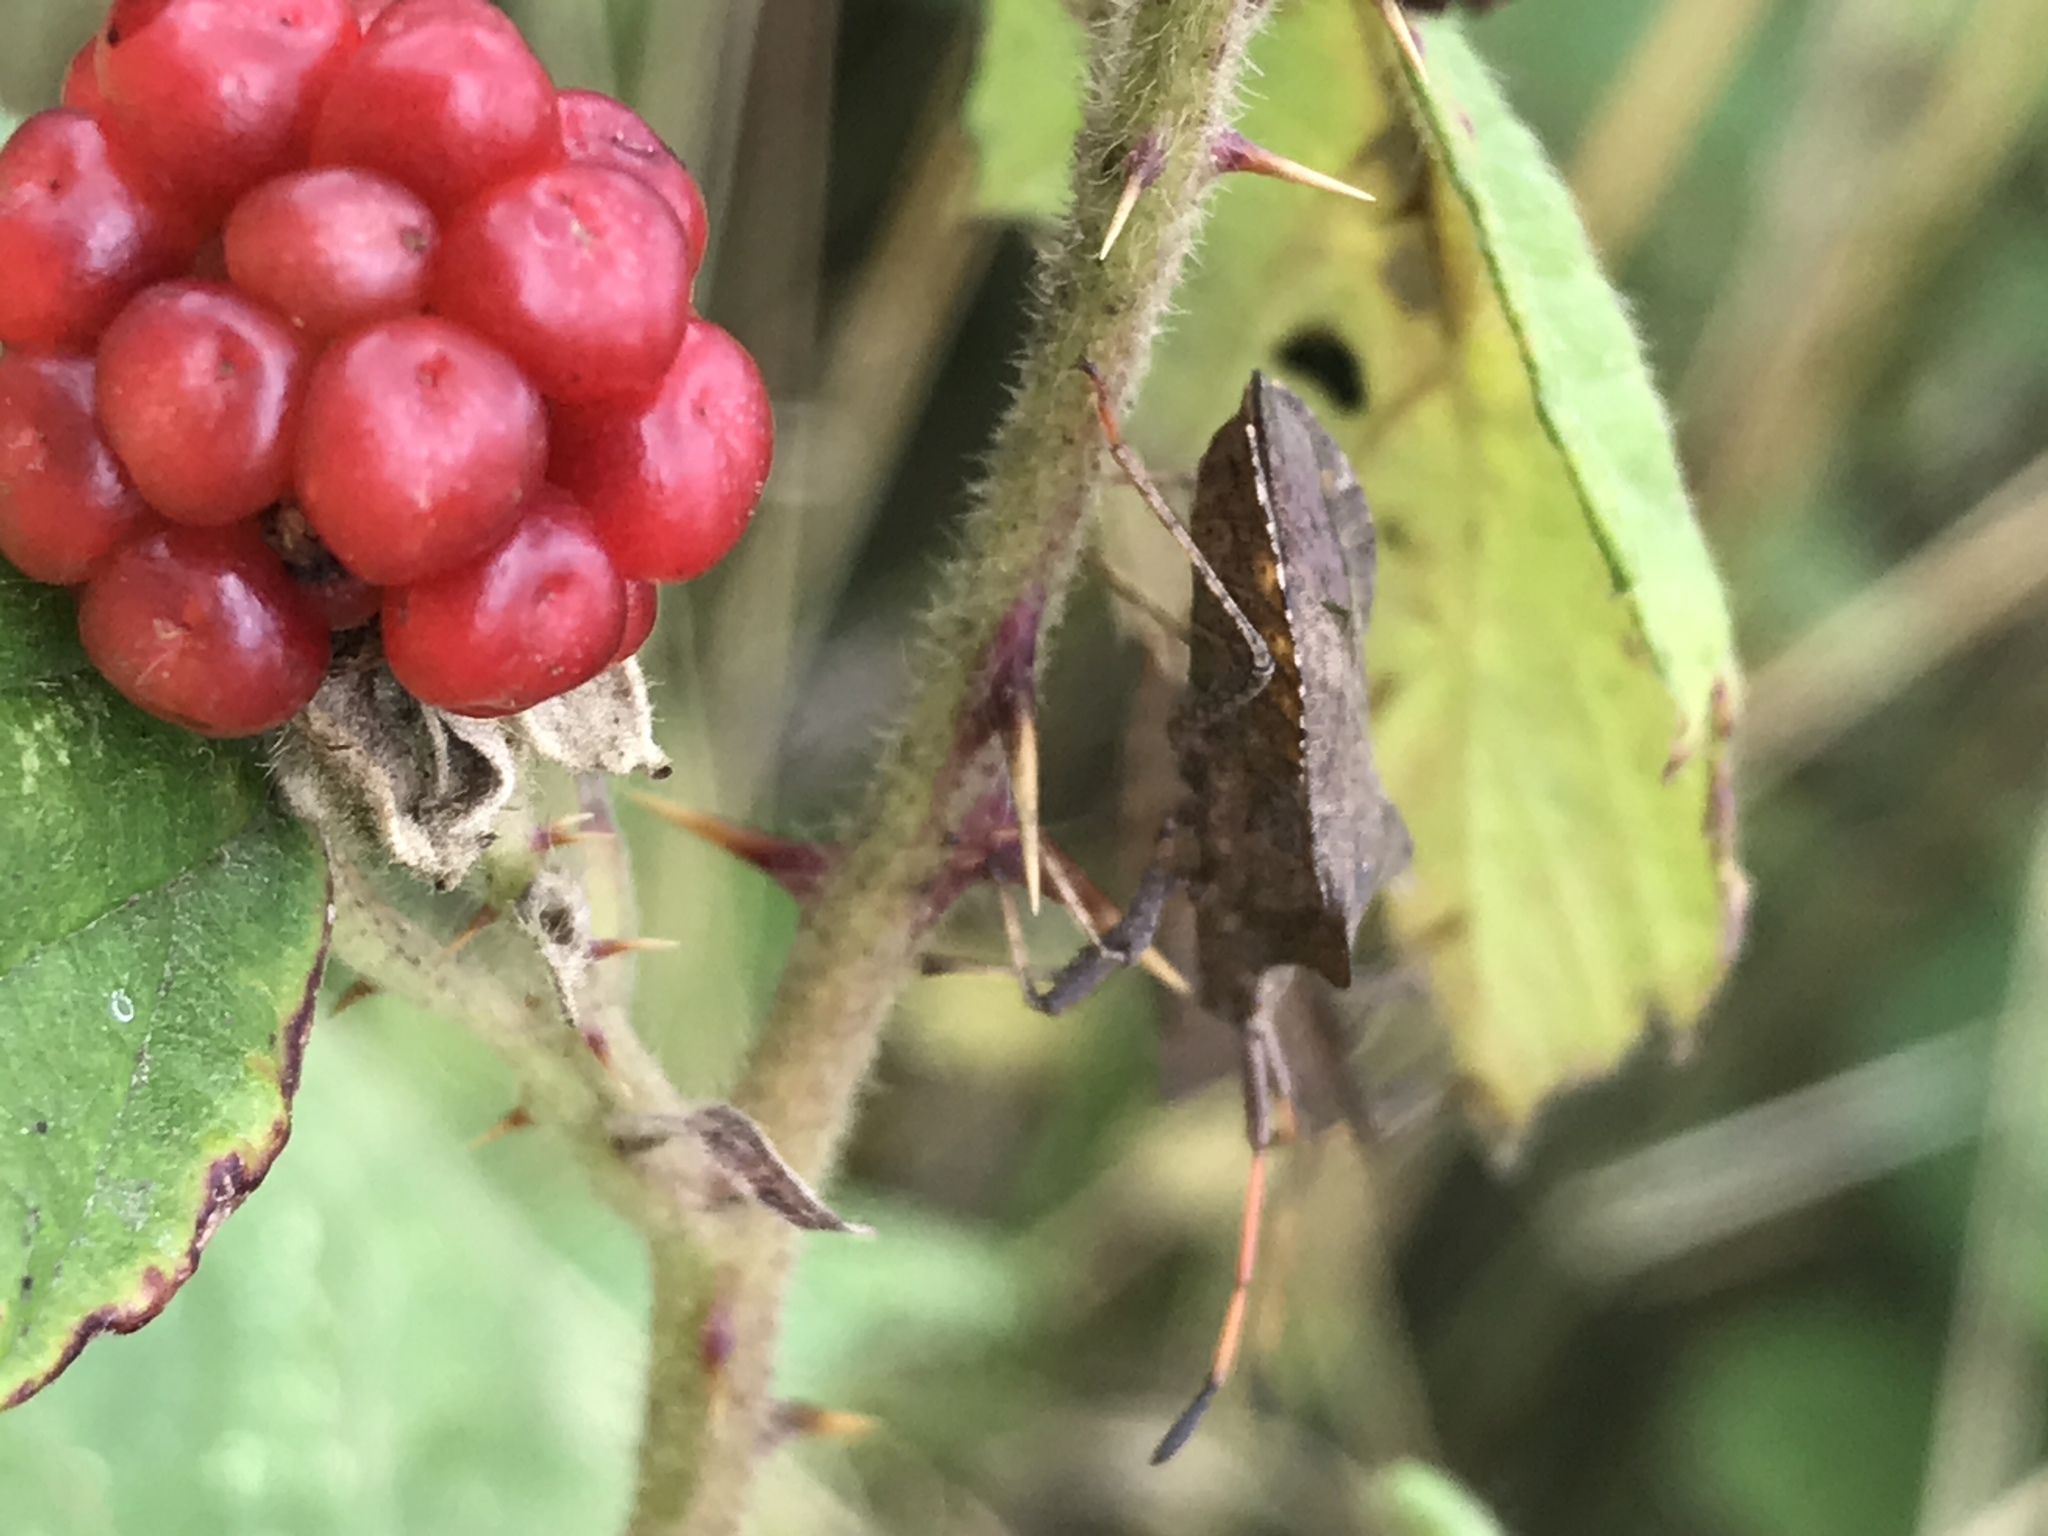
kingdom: Animalia
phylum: Arthropoda
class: Insecta
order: Hemiptera
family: Coreidae
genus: Coreus
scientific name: Coreus marginatus
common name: Dock bug
